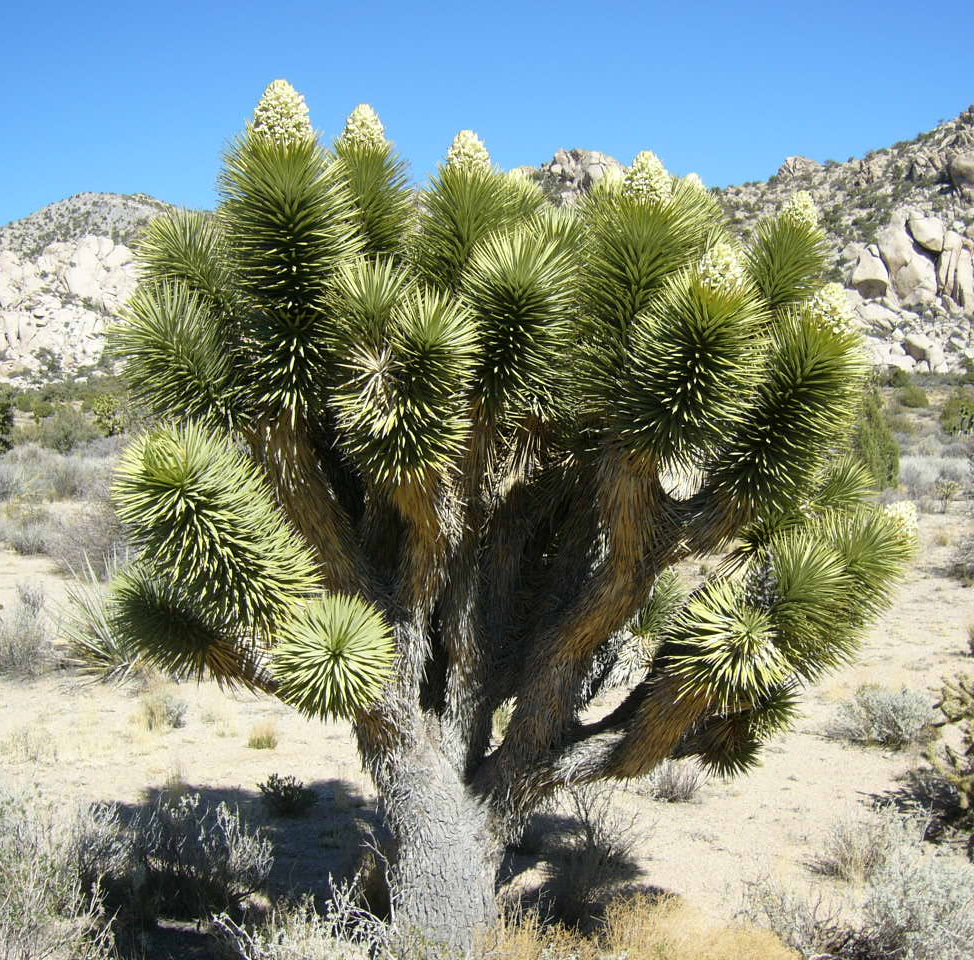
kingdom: Plantae
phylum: Tracheophyta
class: Liliopsida
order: Asparagales
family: Asparagaceae
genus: Yucca
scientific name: Yucca brevifolia
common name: Joshua tree
